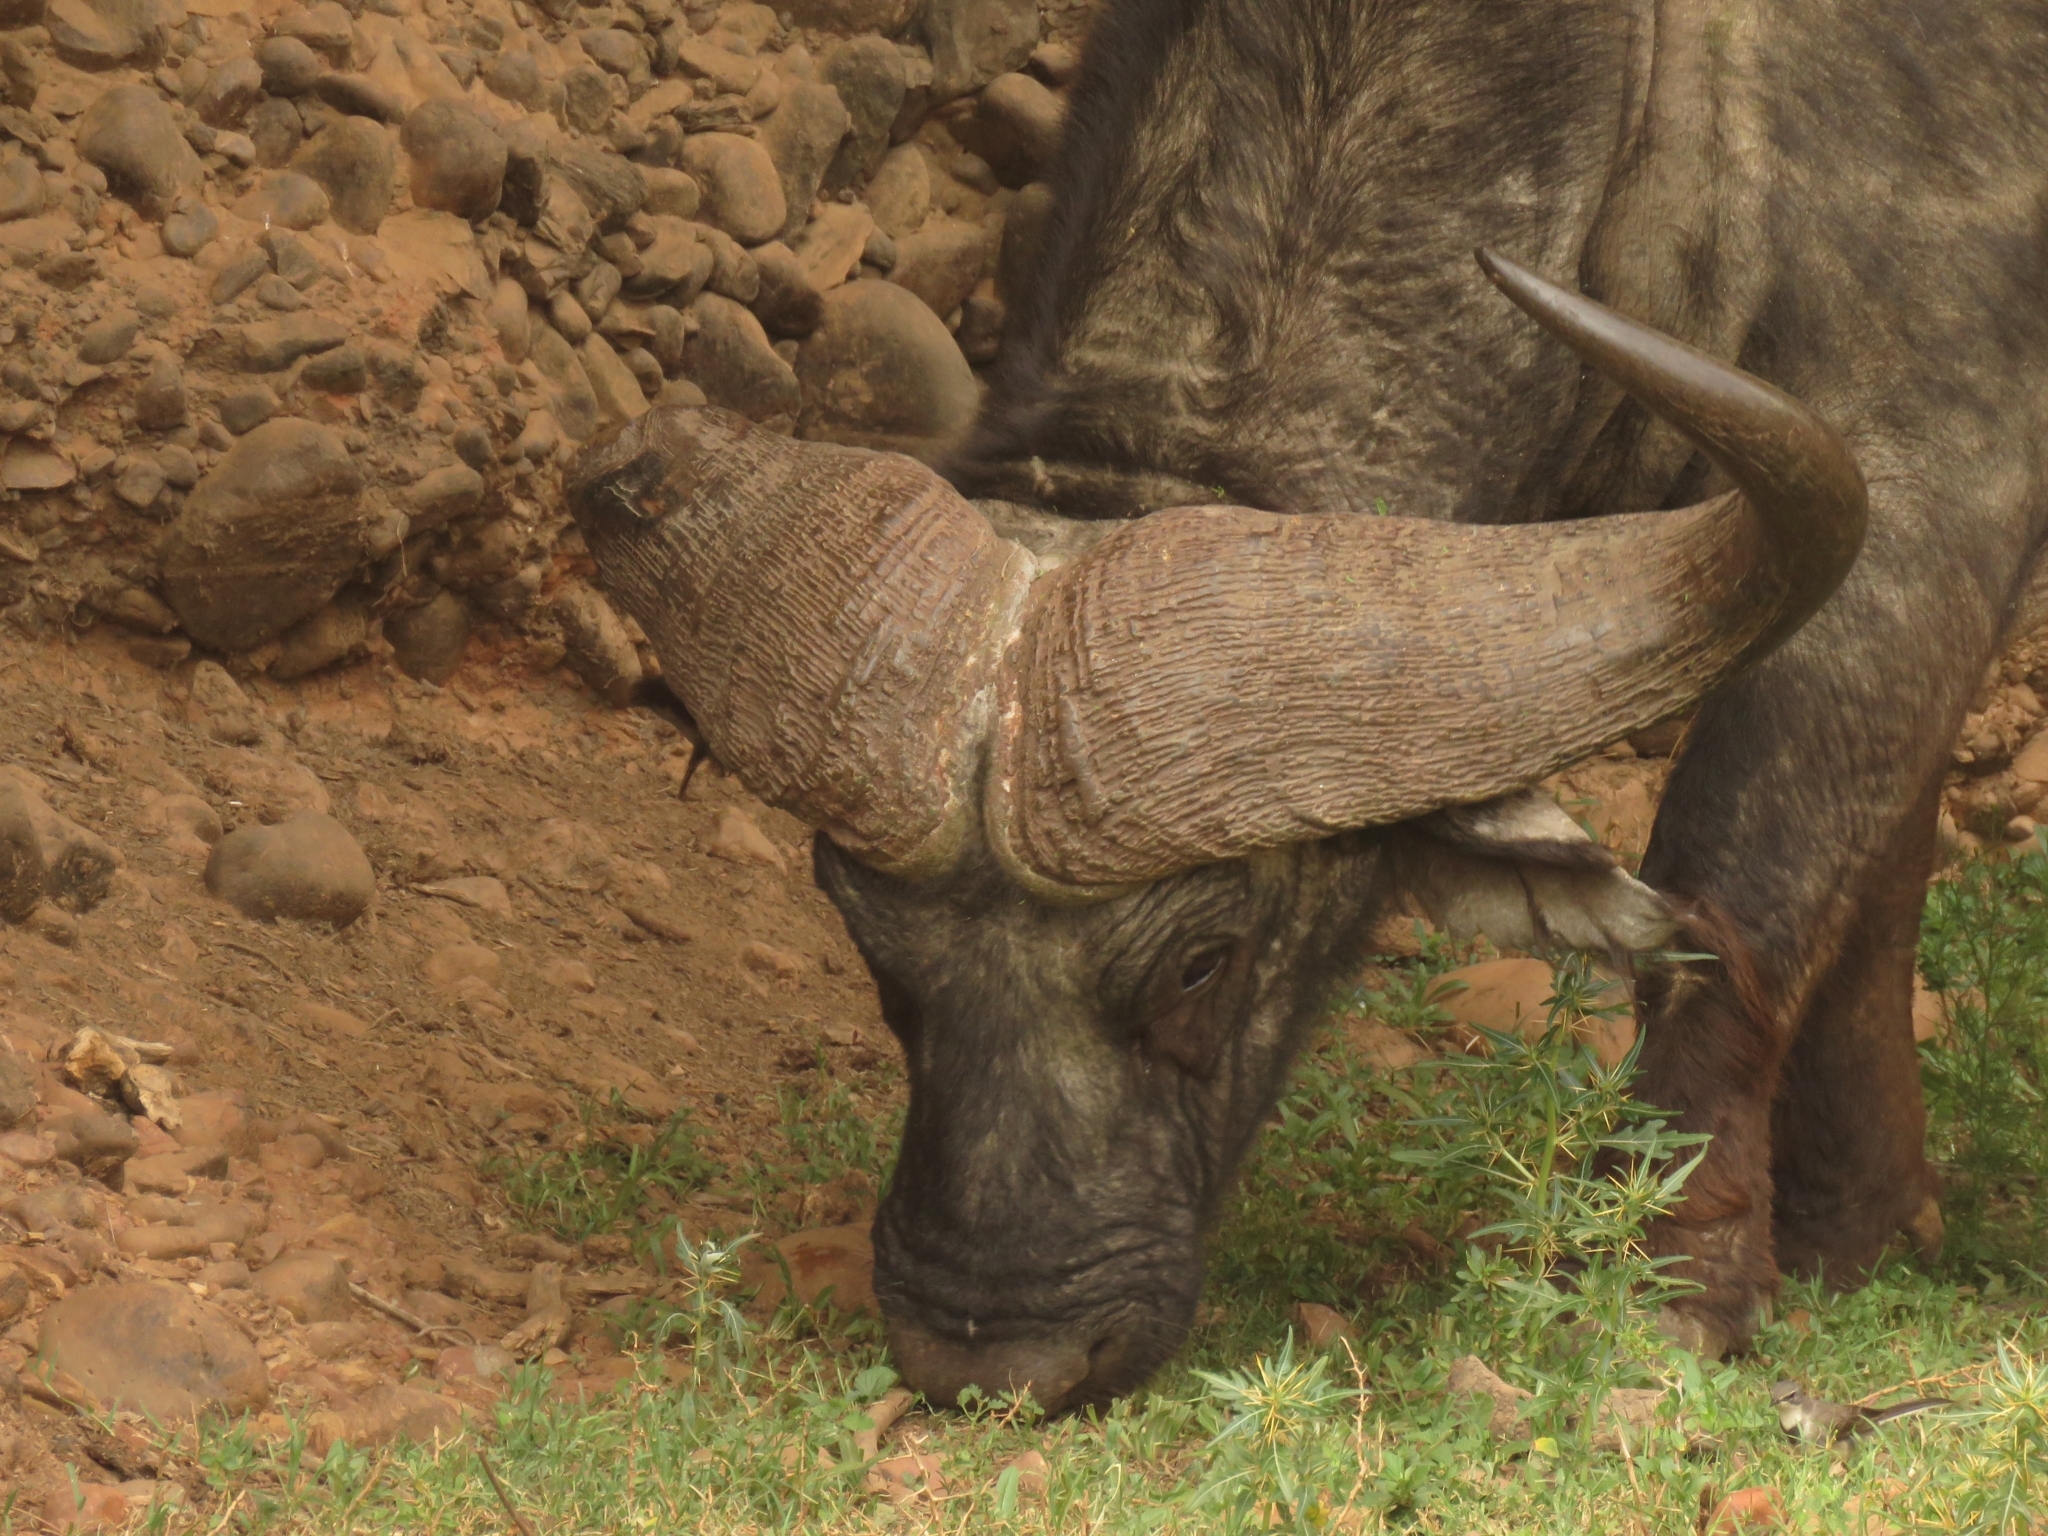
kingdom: Animalia
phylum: Chordata
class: Mammalia
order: Artiodactyla
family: Bovidae
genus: Syncerus
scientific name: Syncerus caffer
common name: African buffalo
